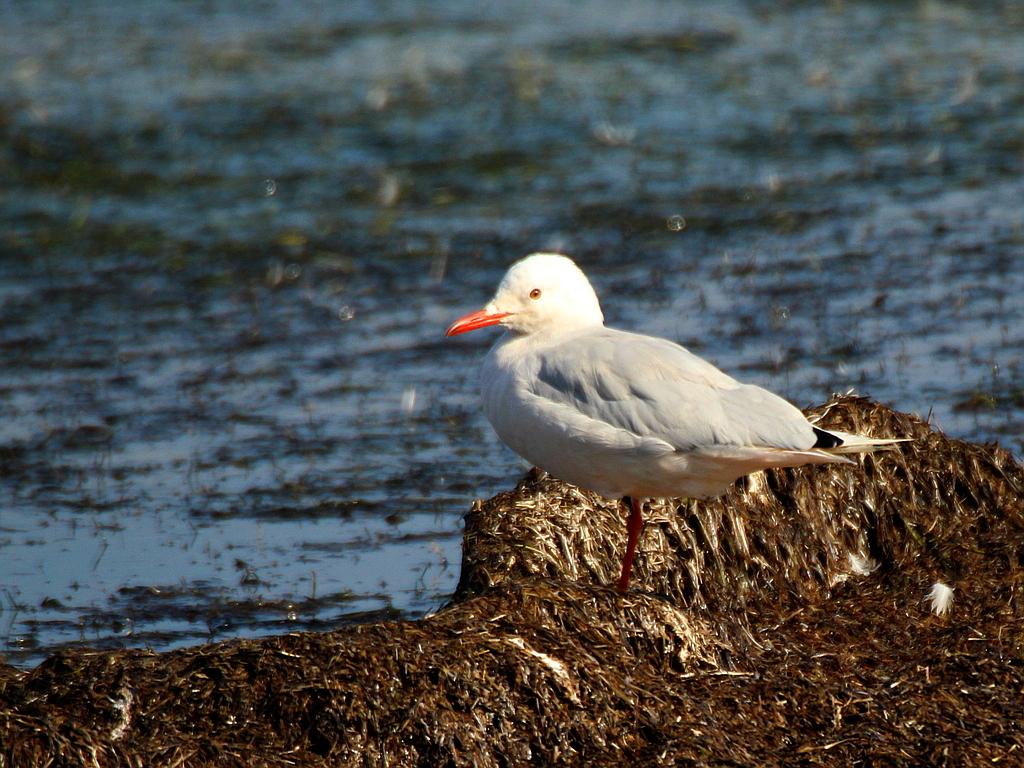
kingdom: Animalia
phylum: Chordata
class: Aves
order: Charadriiformes
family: Laridae
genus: Chroicocephalus
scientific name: Chroicocephalus genei
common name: Slender-billed gull
